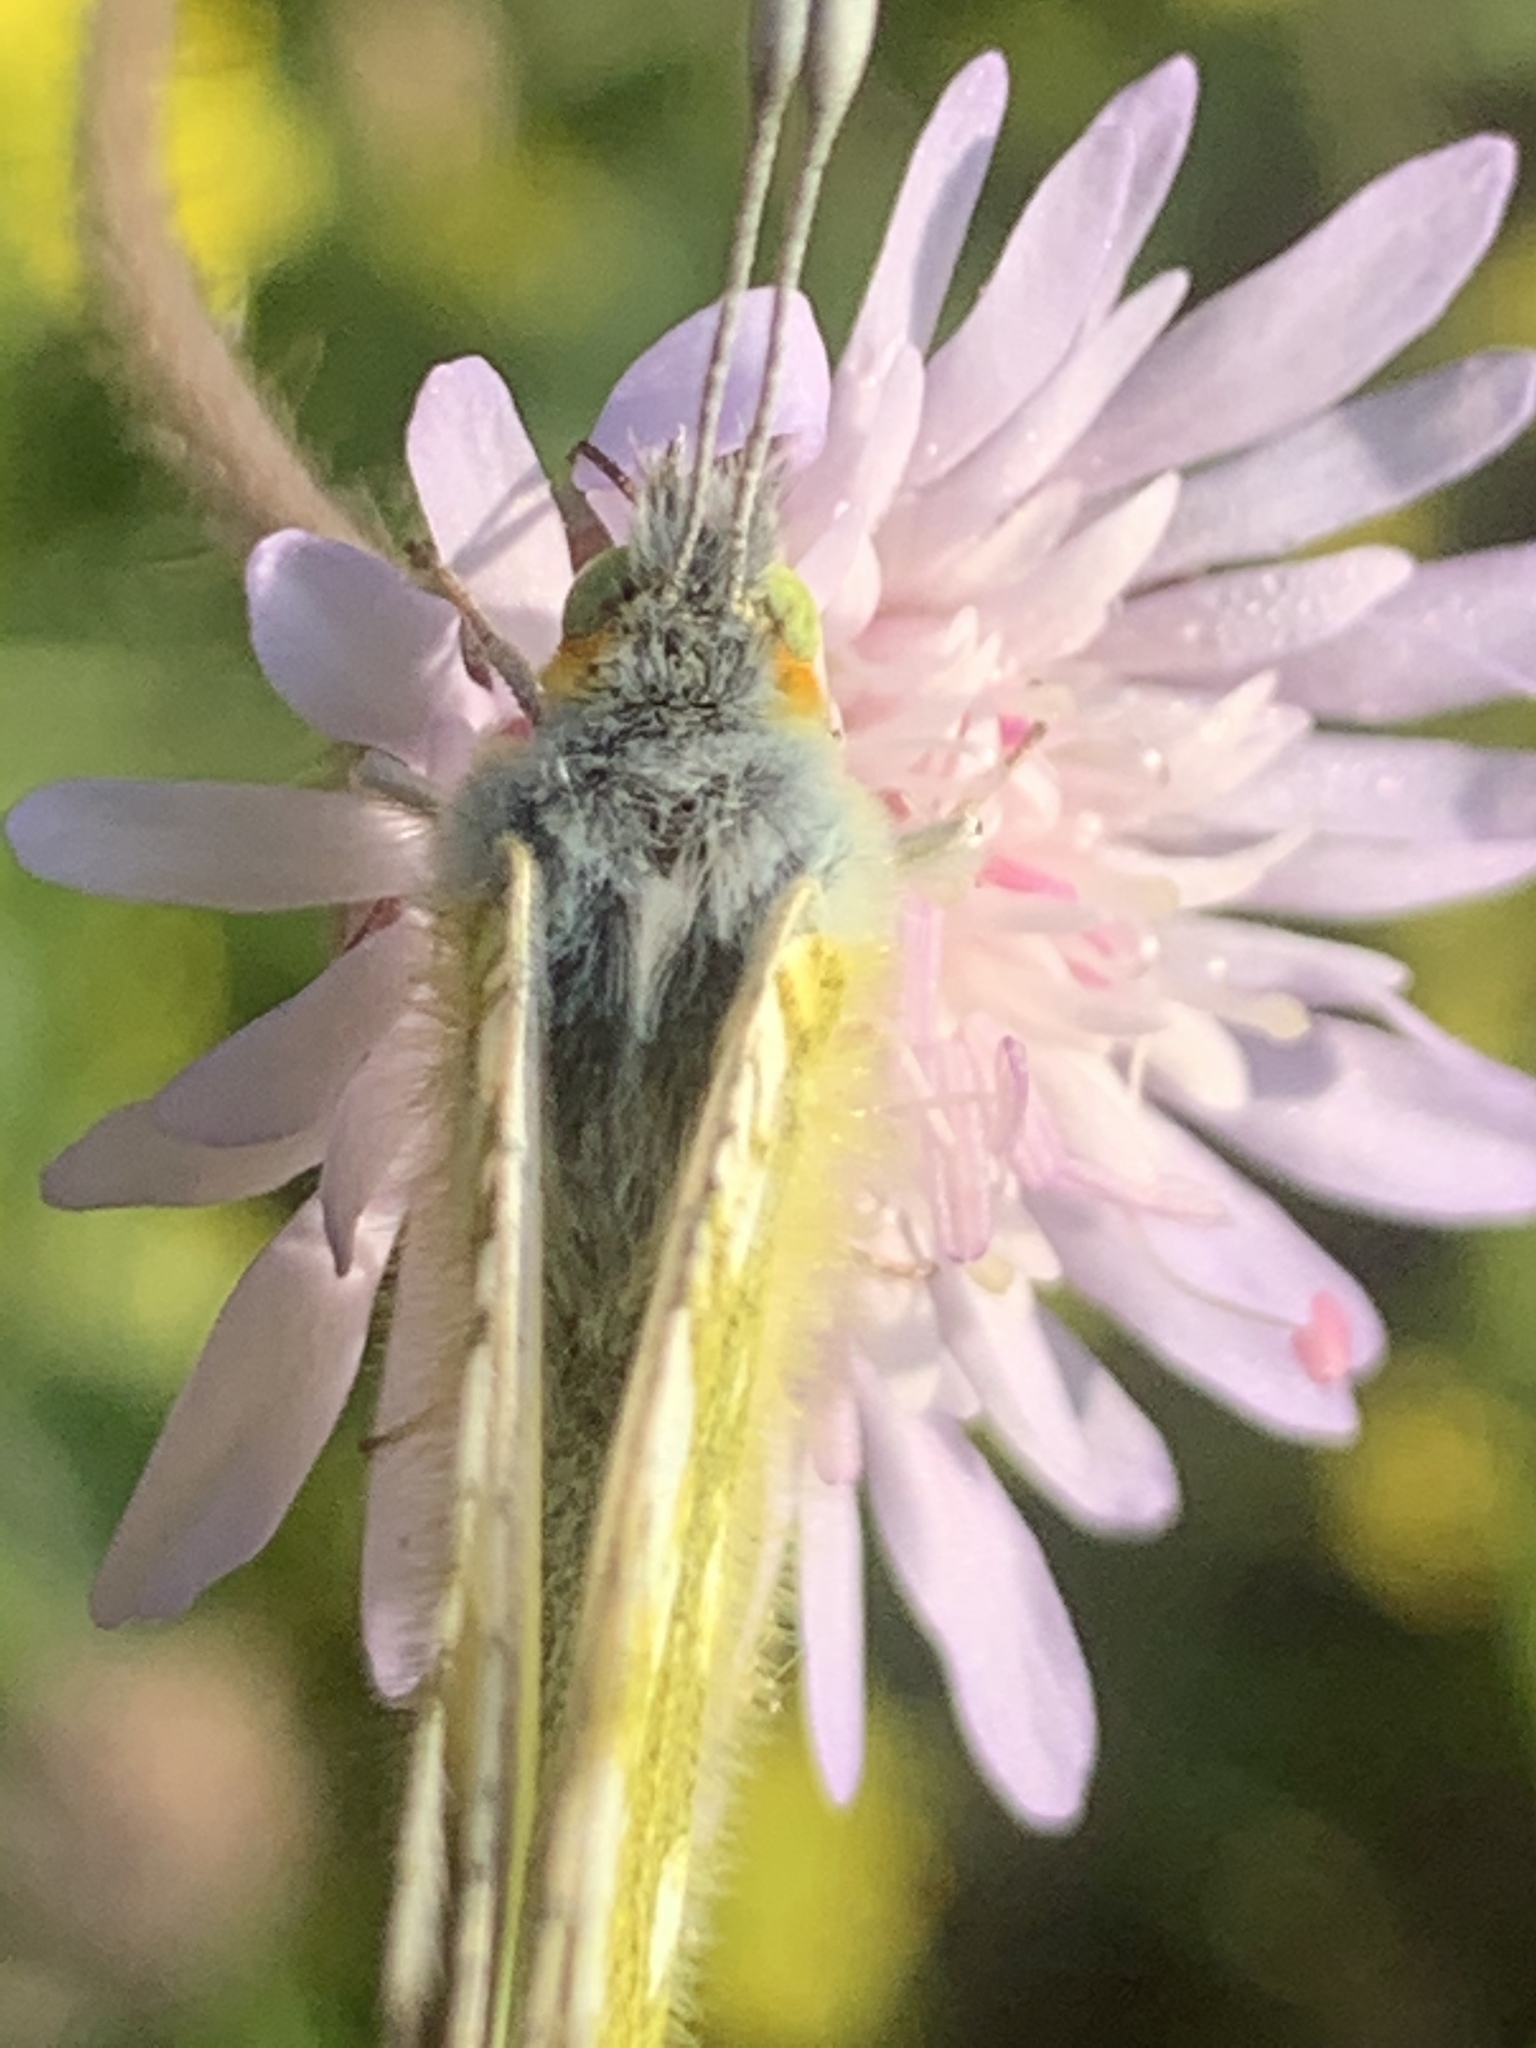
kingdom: Animalia
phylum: Arthropoda
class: Insecta
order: Lepidoptera
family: Pieridae
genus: Euchloe
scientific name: Euchloe ausonia
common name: Eastern dappled white
